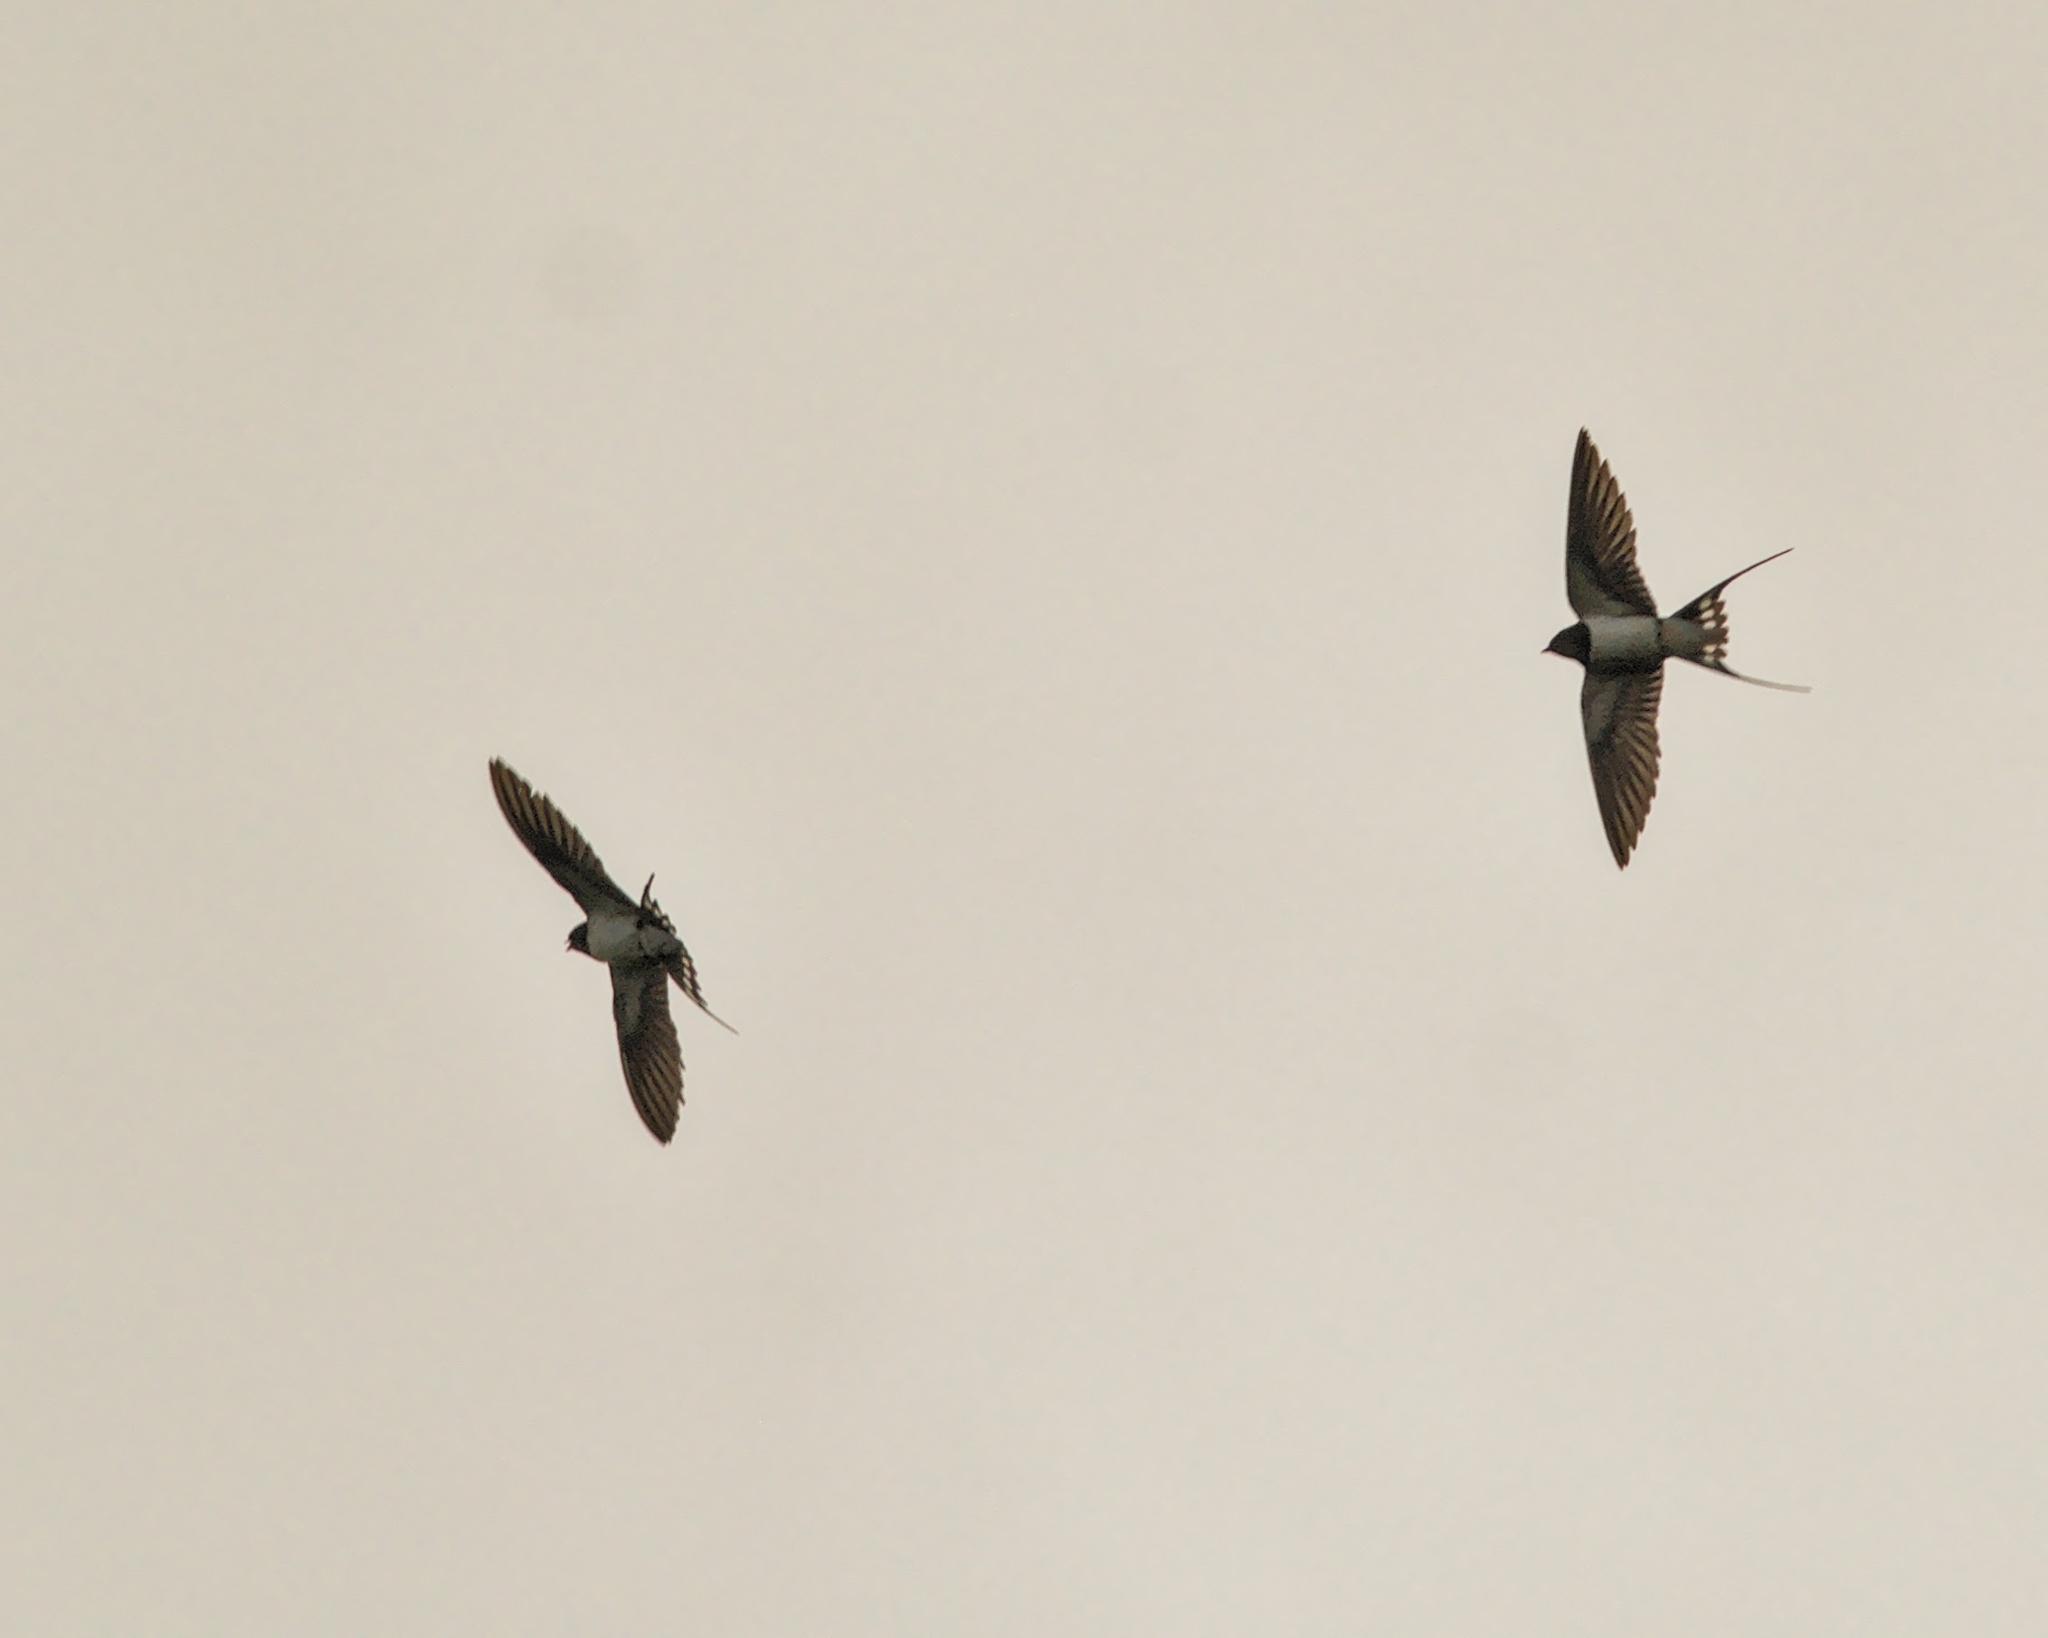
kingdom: Animalia
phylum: Chordata
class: Aves
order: Passeriformes
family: Hirundinidae
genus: Hirundo
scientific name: Hirundo rustica
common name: Barn swallow
